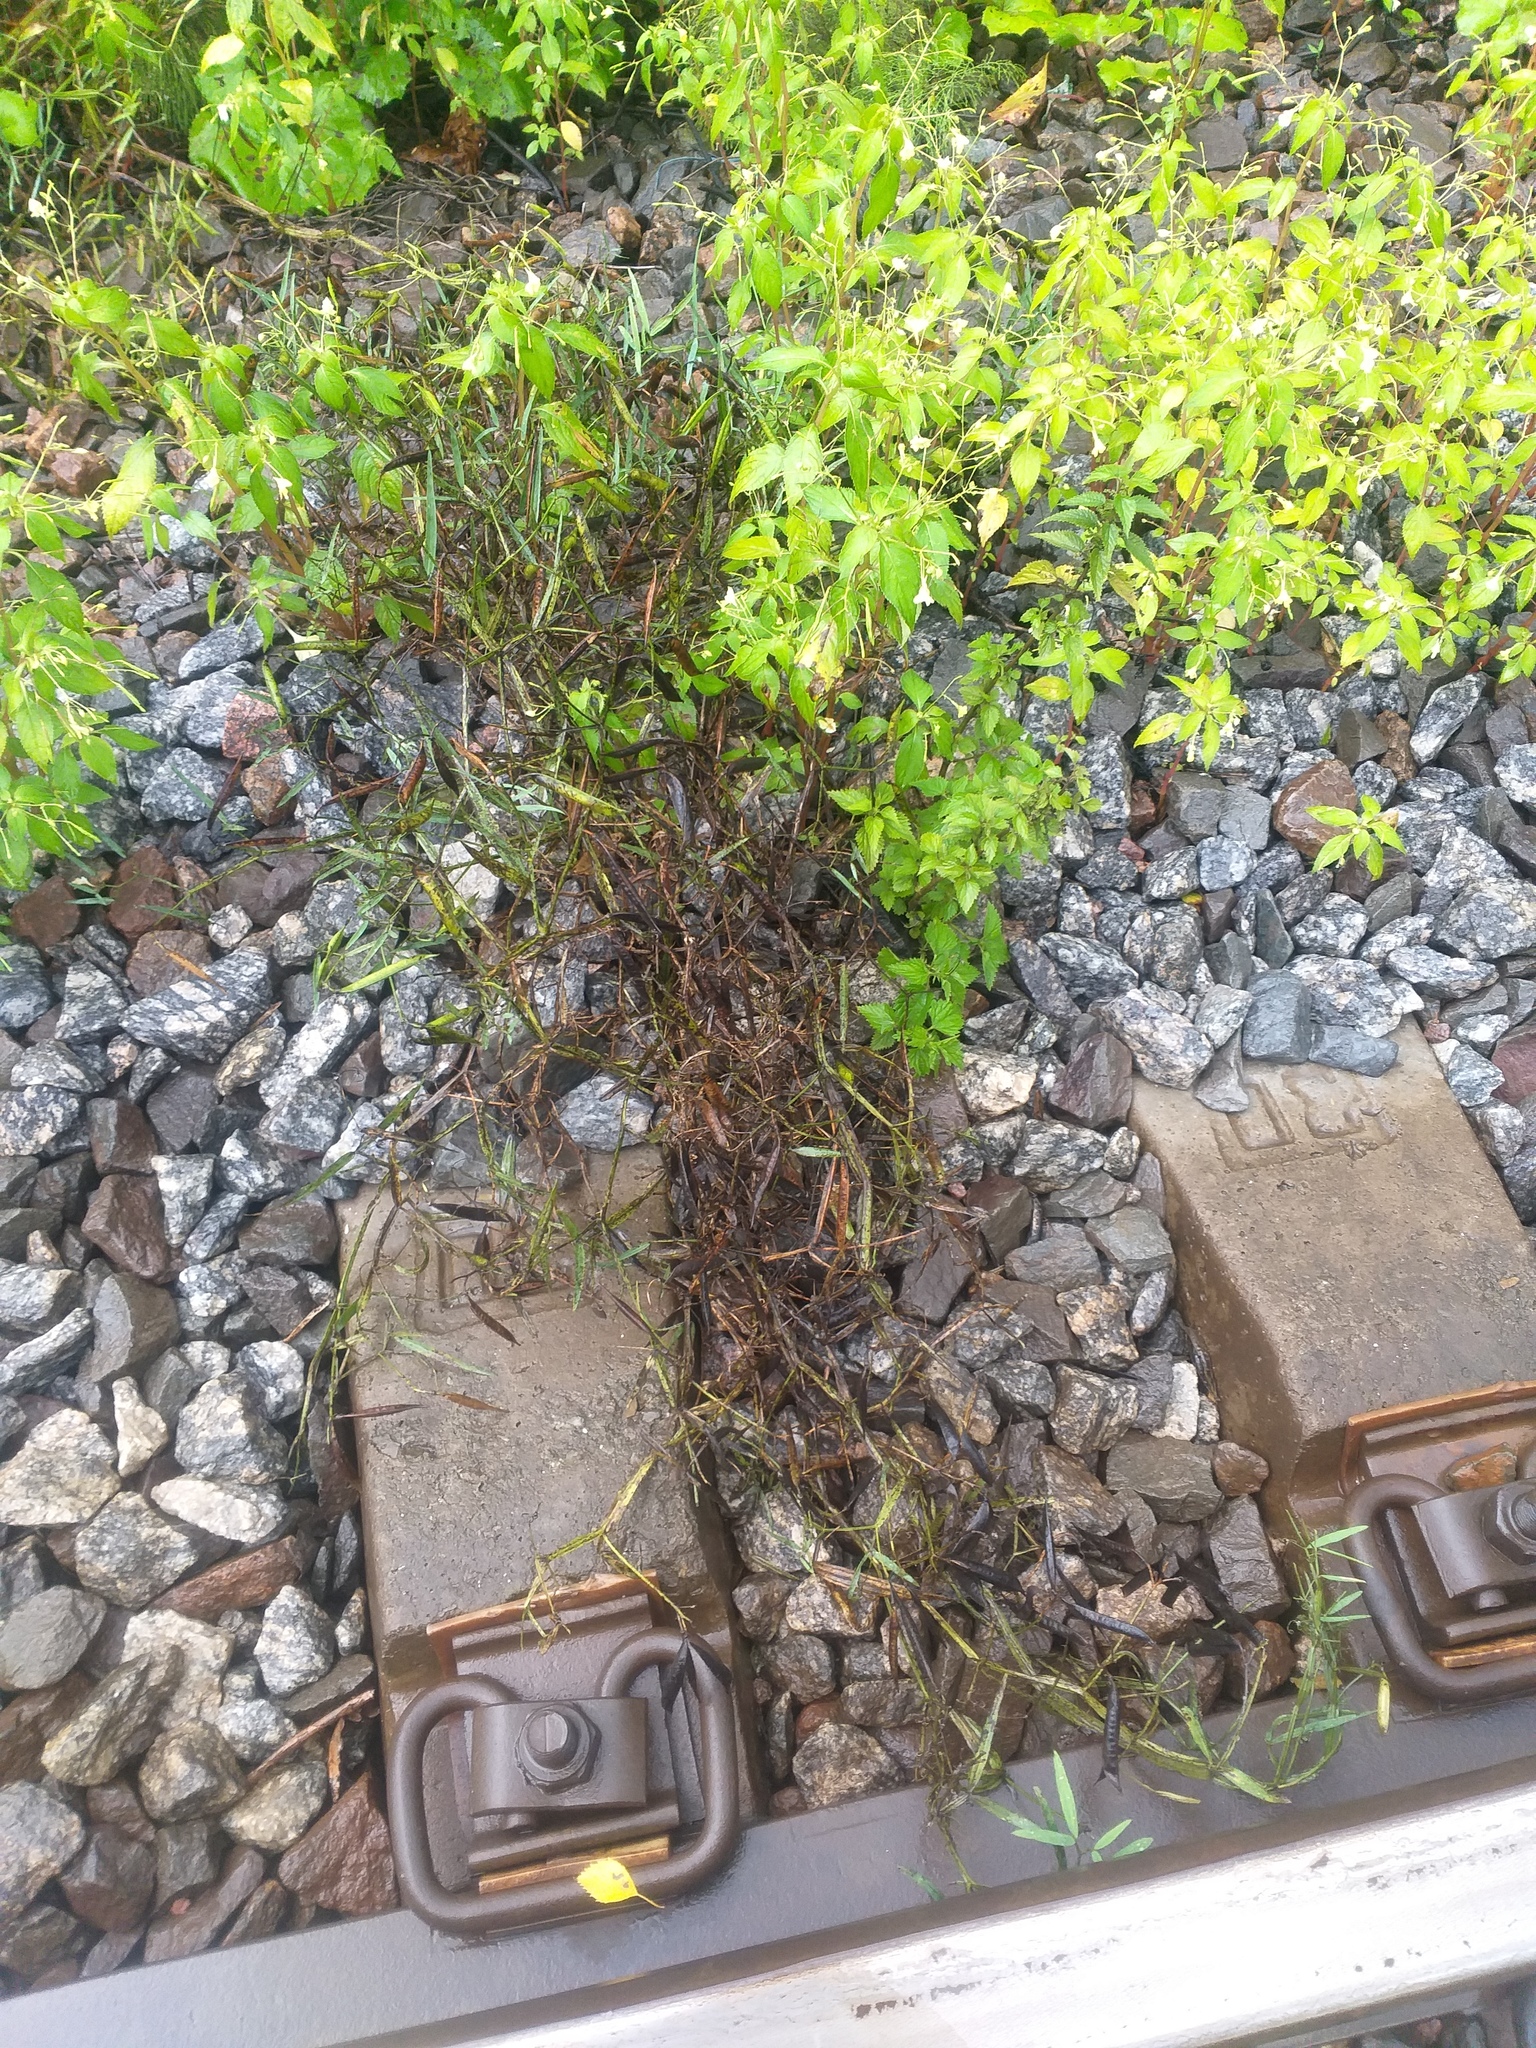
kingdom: Plantae
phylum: Tracheophyta
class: Magnoliopsida
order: Fabales
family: Fabaceae
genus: Lathyrus
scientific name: Lathyrus sylvestris
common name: Flat pea
